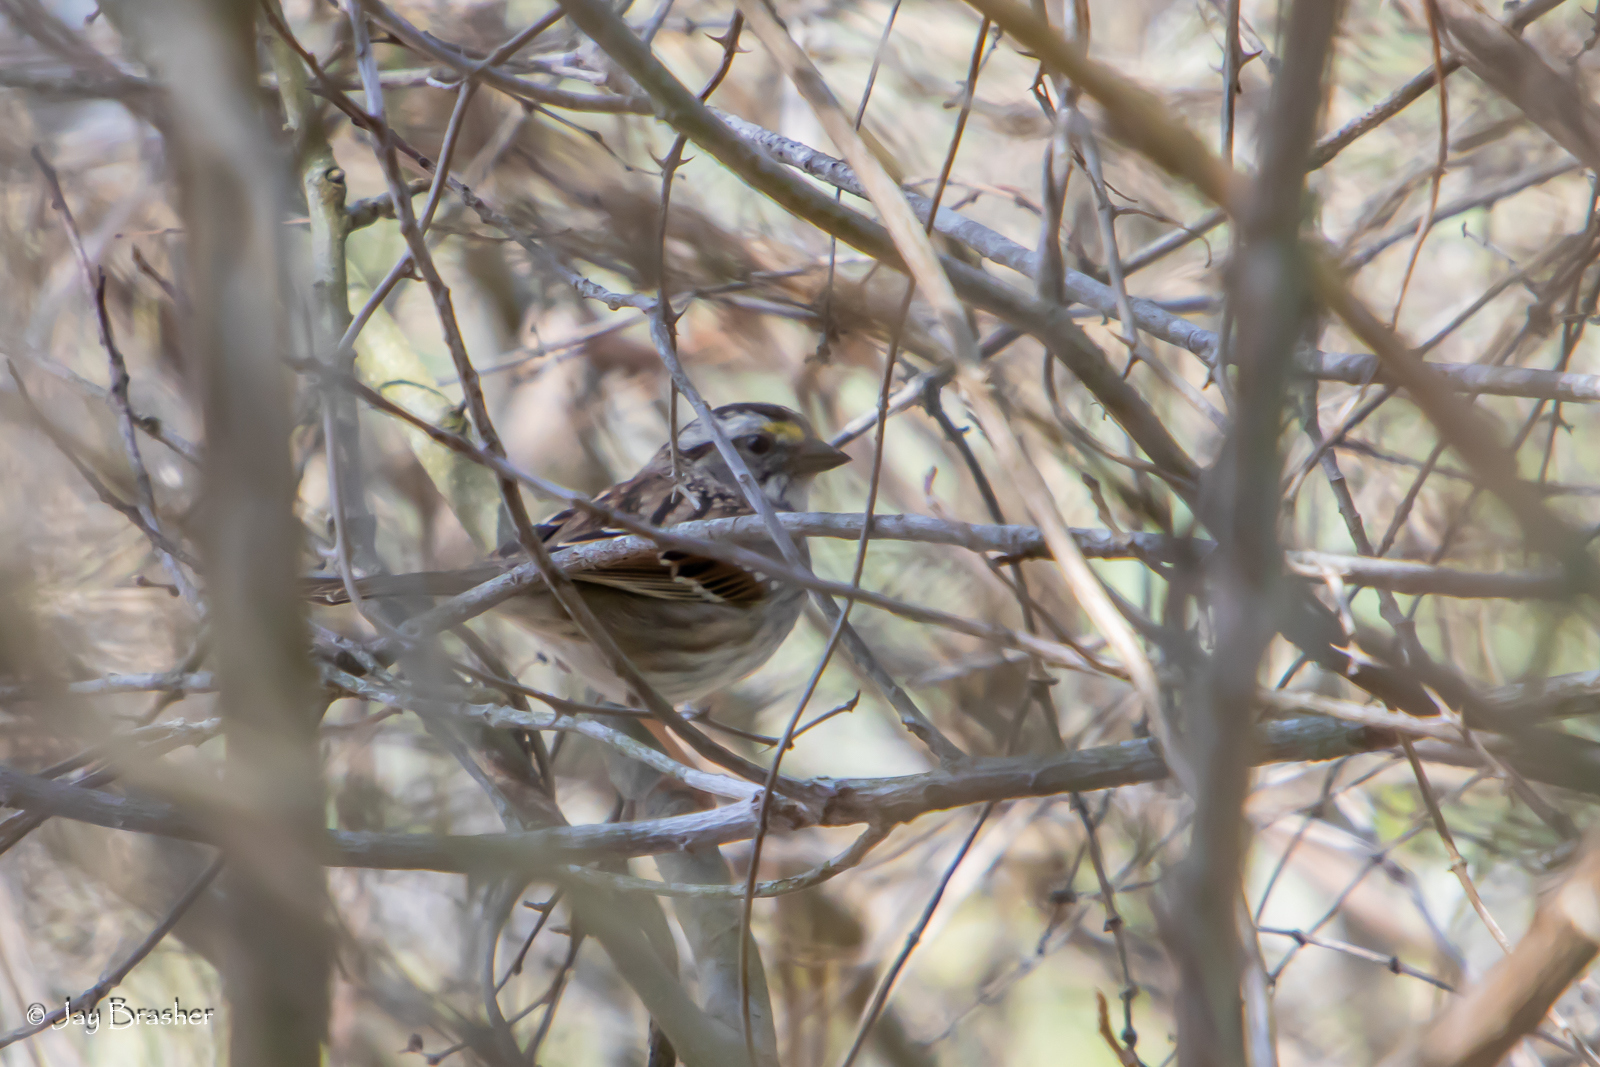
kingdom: Animalia
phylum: Chordata
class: Aves
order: Passeriformes
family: Passerellidae
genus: Zonotrichia
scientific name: Zonotrichia albicollis
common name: White-throated sparrow
